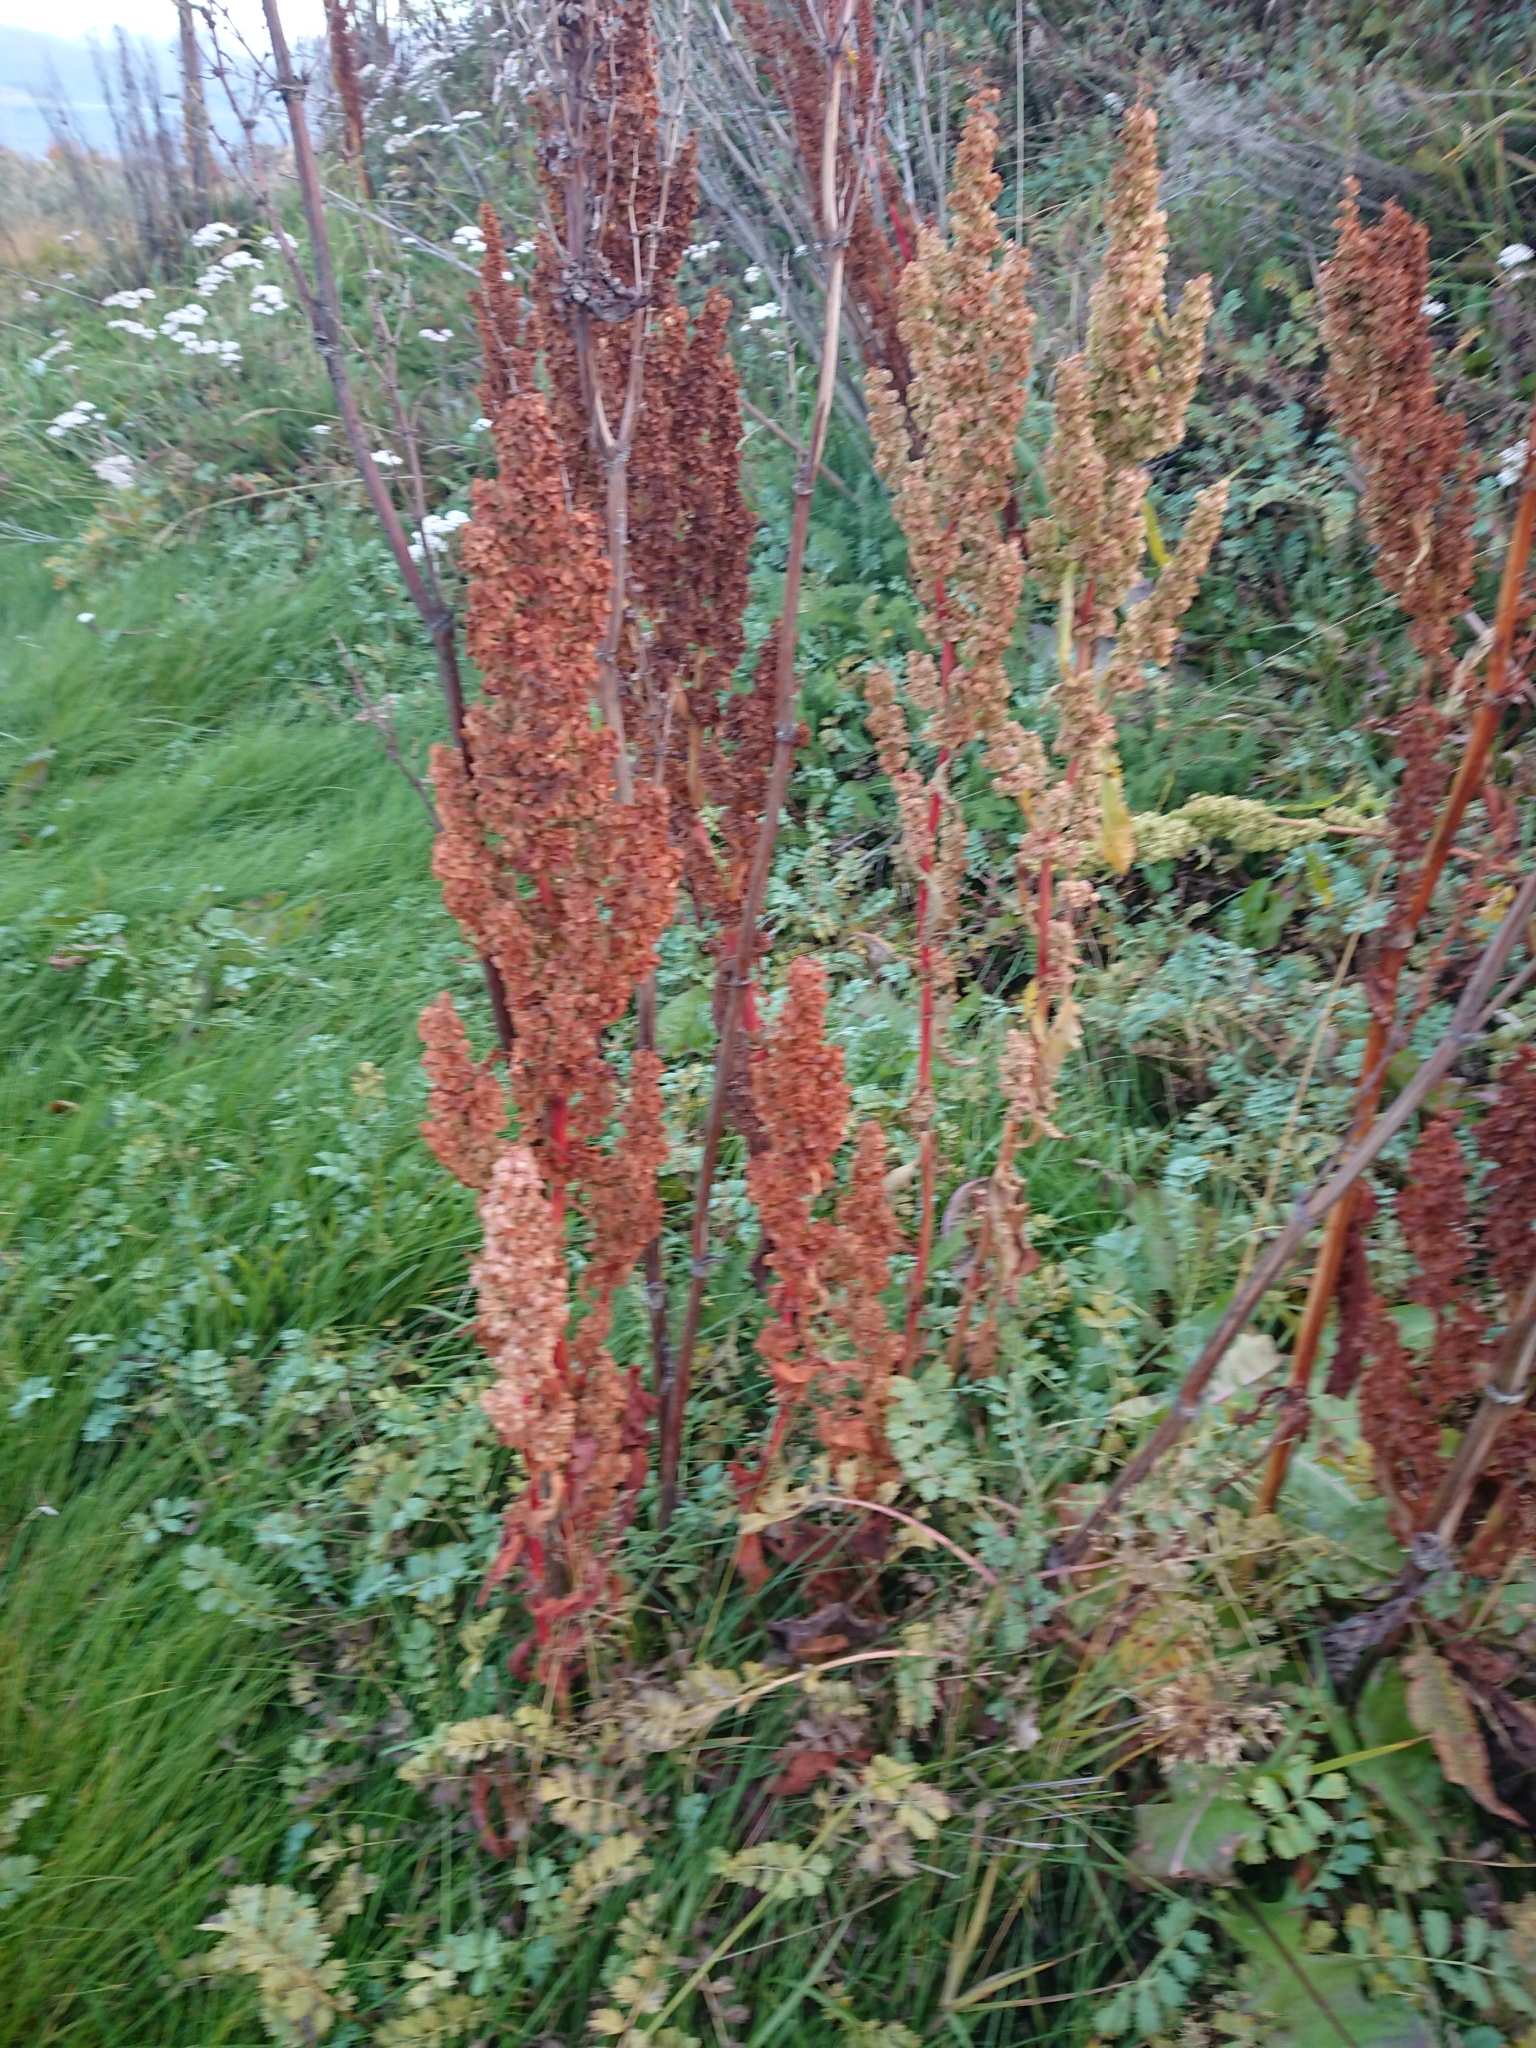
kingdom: Plantae
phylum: Tracheophyta
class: Magnoliopsida
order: Caryophyllales
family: Polygonaceae
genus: Rumex
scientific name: Rumex crispus
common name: Curled dock
